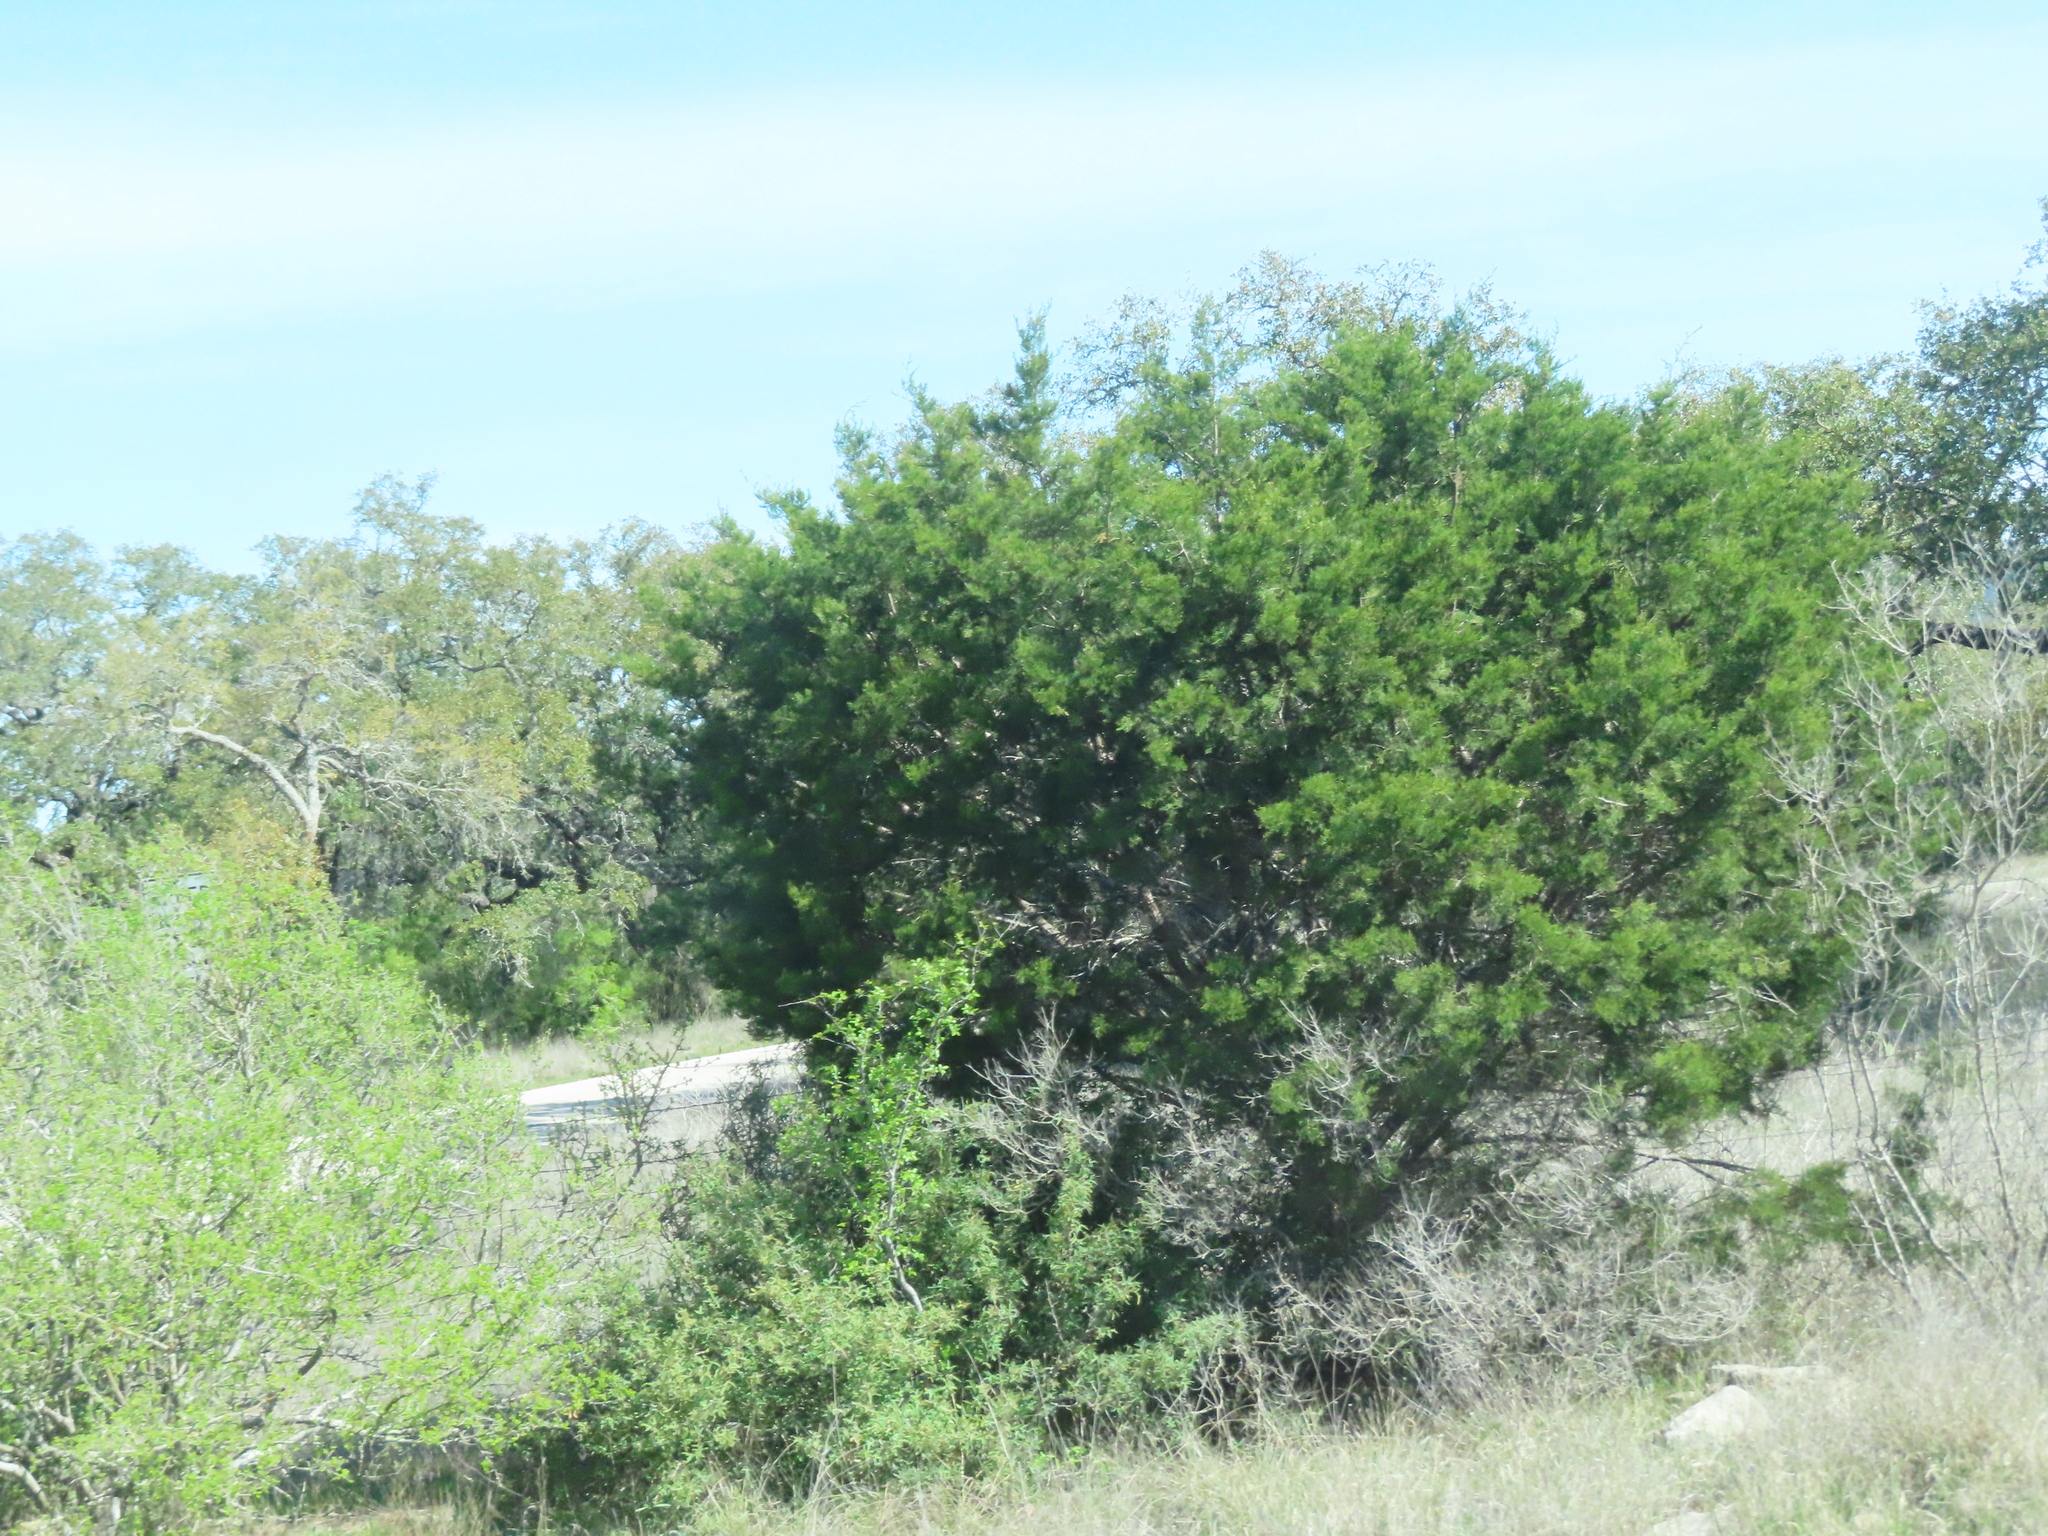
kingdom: Plantae
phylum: Tracheophyta
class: Pinopsida
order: Pinales
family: Cupressaceae
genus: Juniperus
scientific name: Juniperus ashei
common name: Mexican juniper
